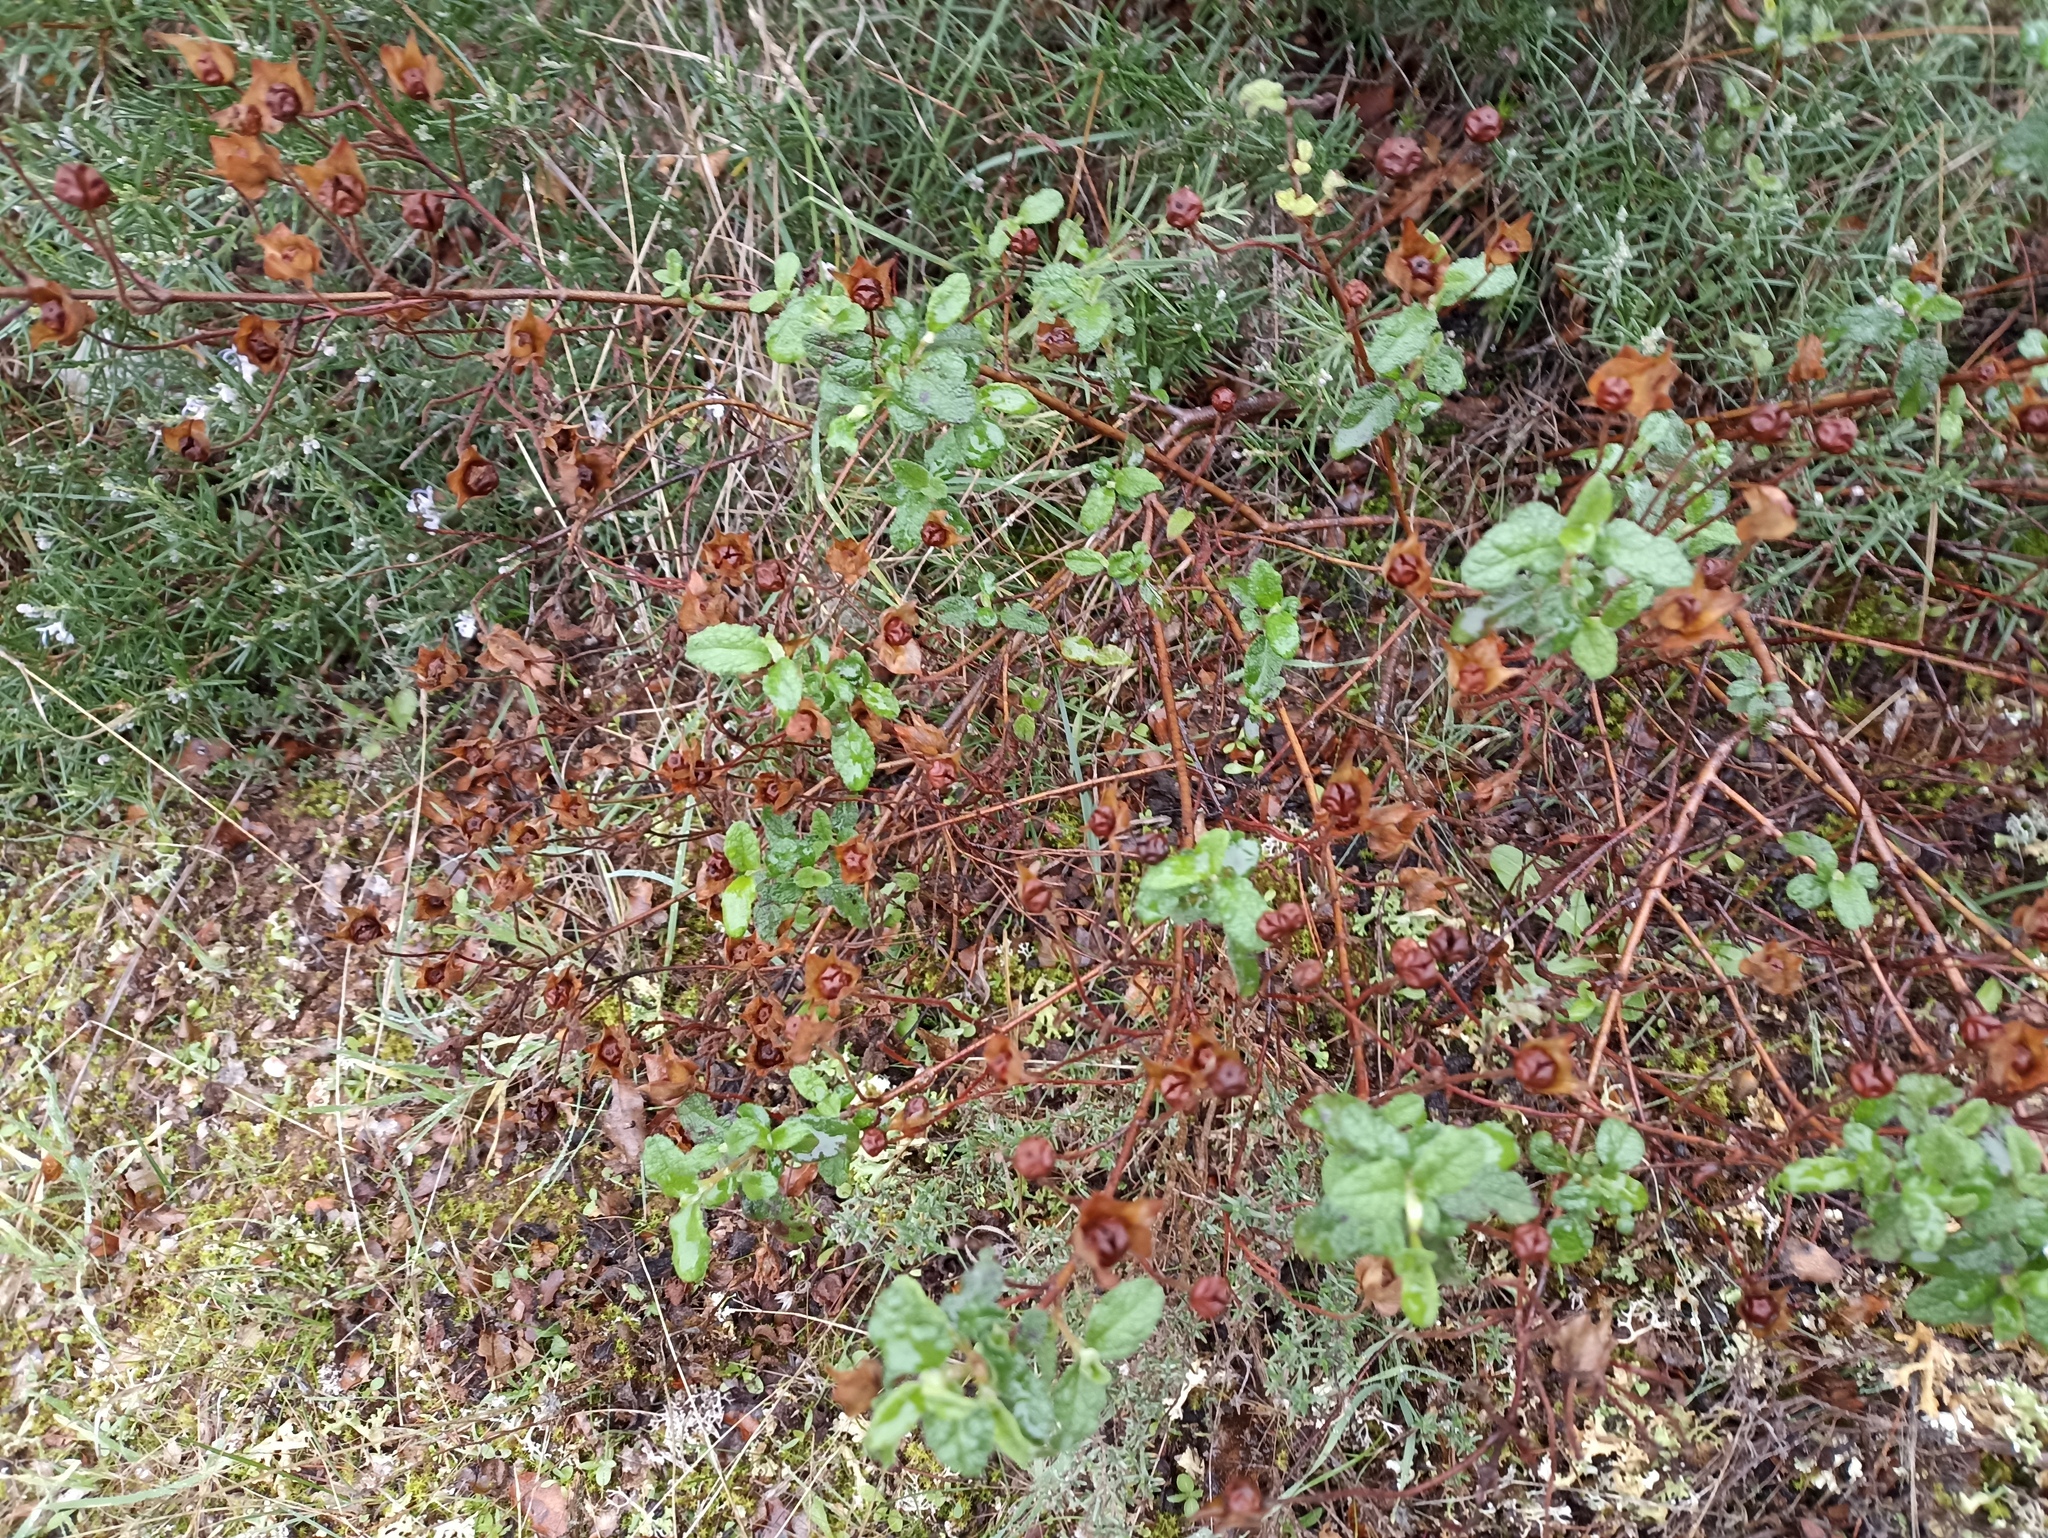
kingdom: Plantae
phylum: Tracheophyta
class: Magnoliopsida
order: Malvales
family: Cistaceae
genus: Cistus
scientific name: Cistus salviifolius
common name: Salvia cistus
